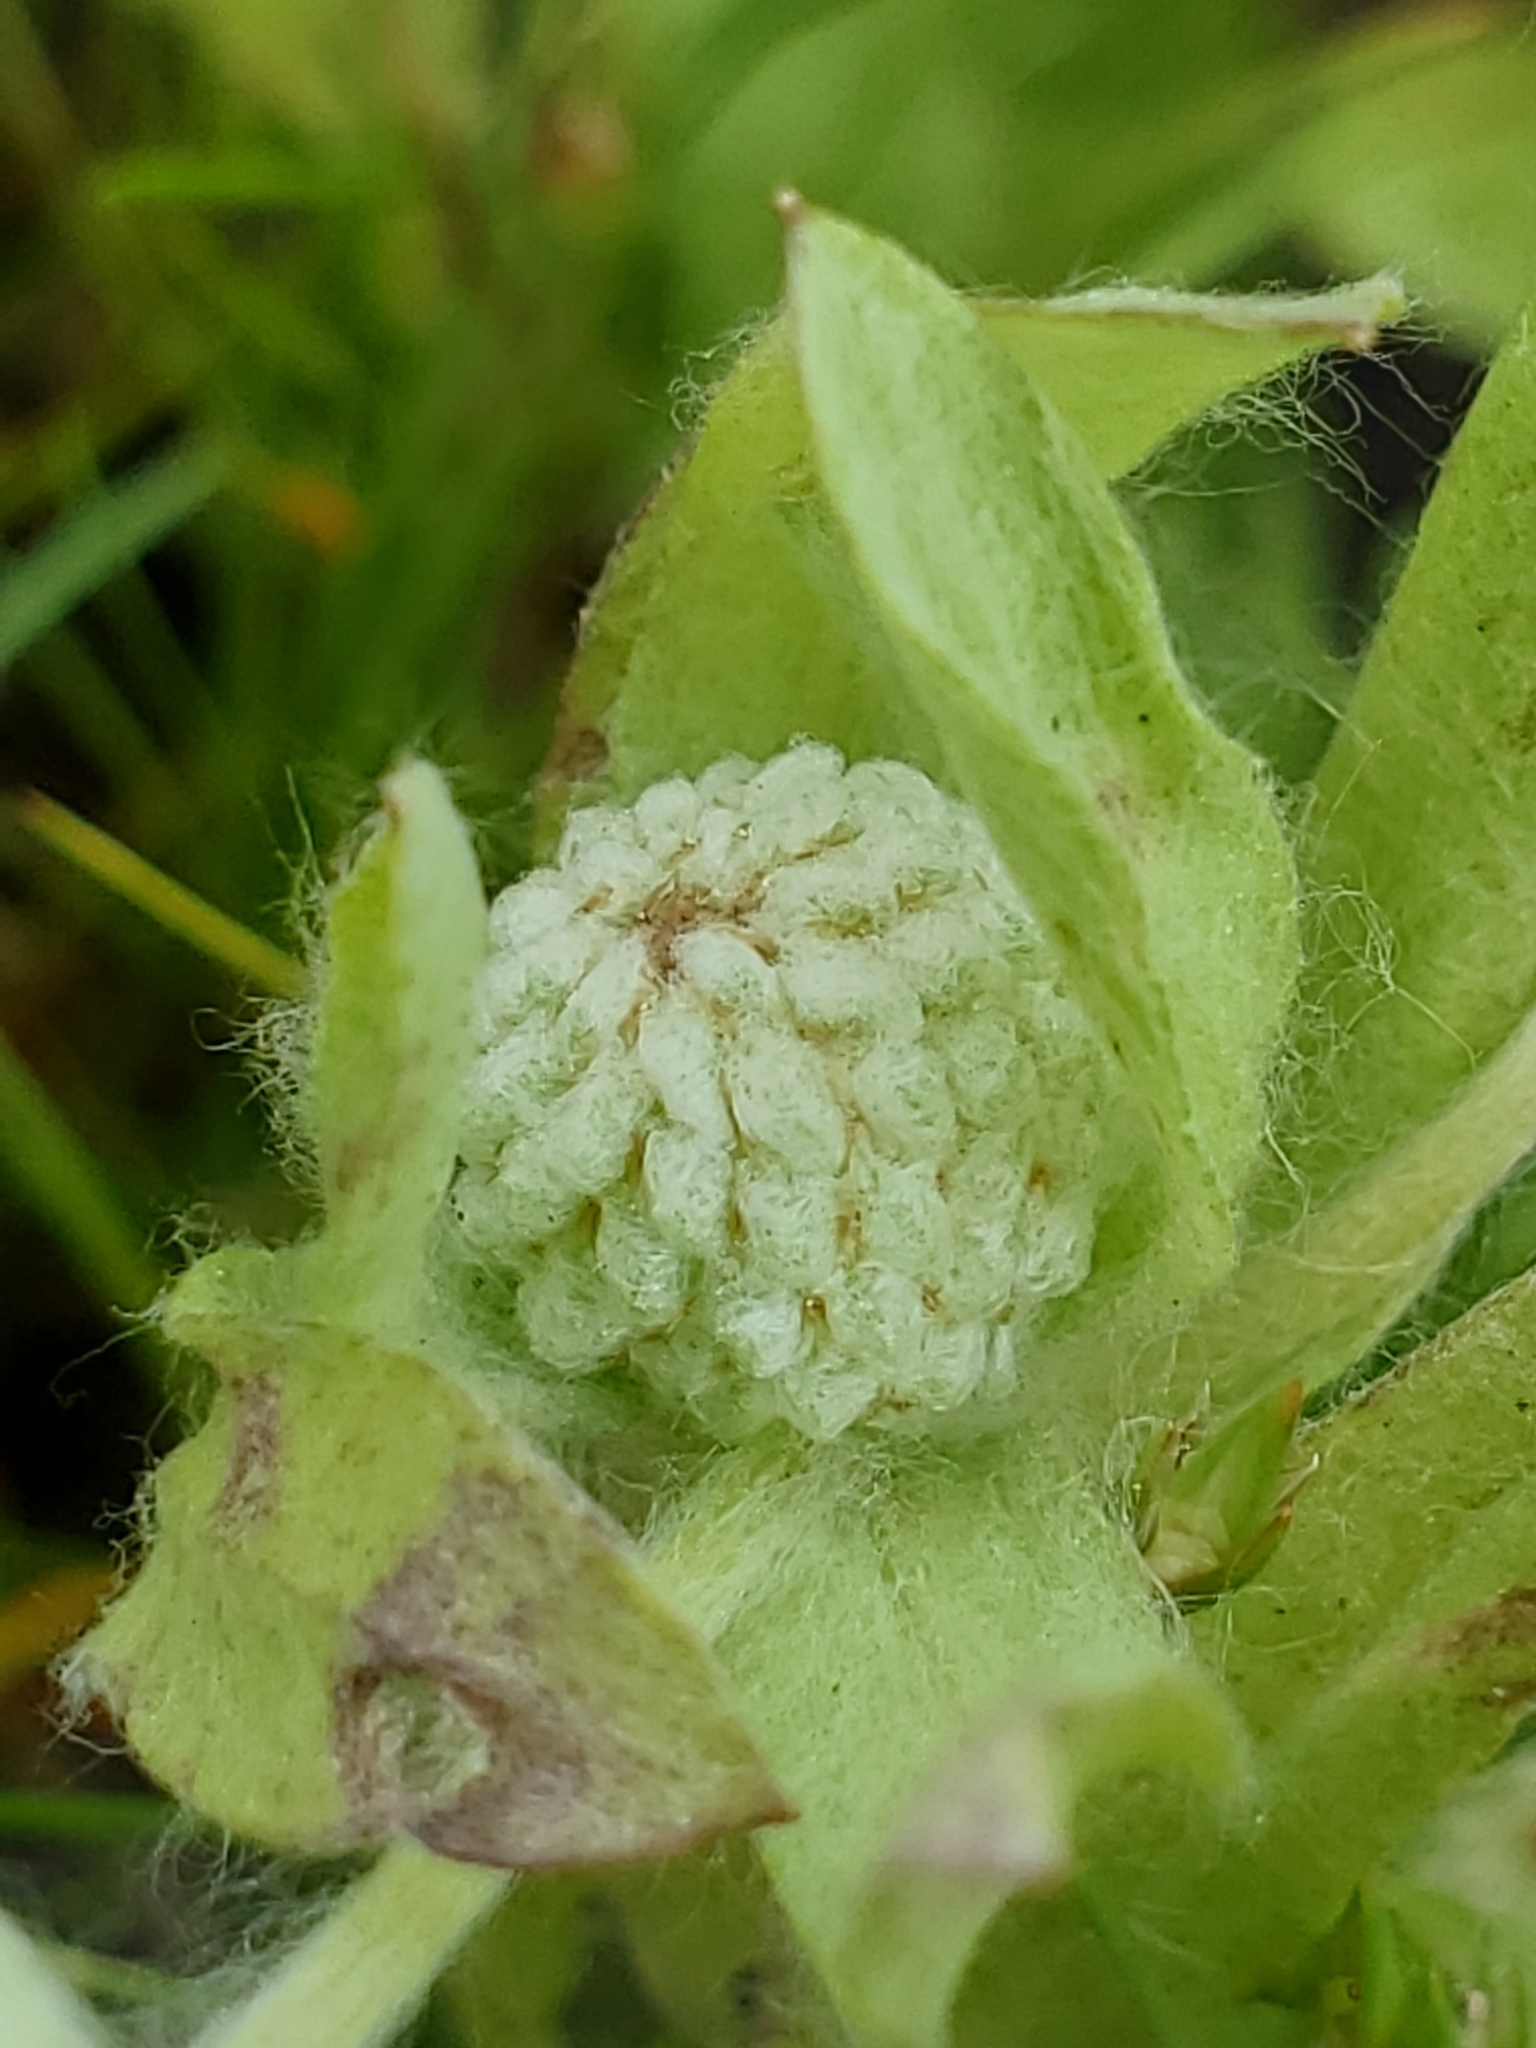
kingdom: Plantae
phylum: Tracheophyta
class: Magnoliopsida
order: Asterales
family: Asteraceae
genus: Psilocarphus
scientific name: Psilocarphus elatior
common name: Meadow woollyheads
